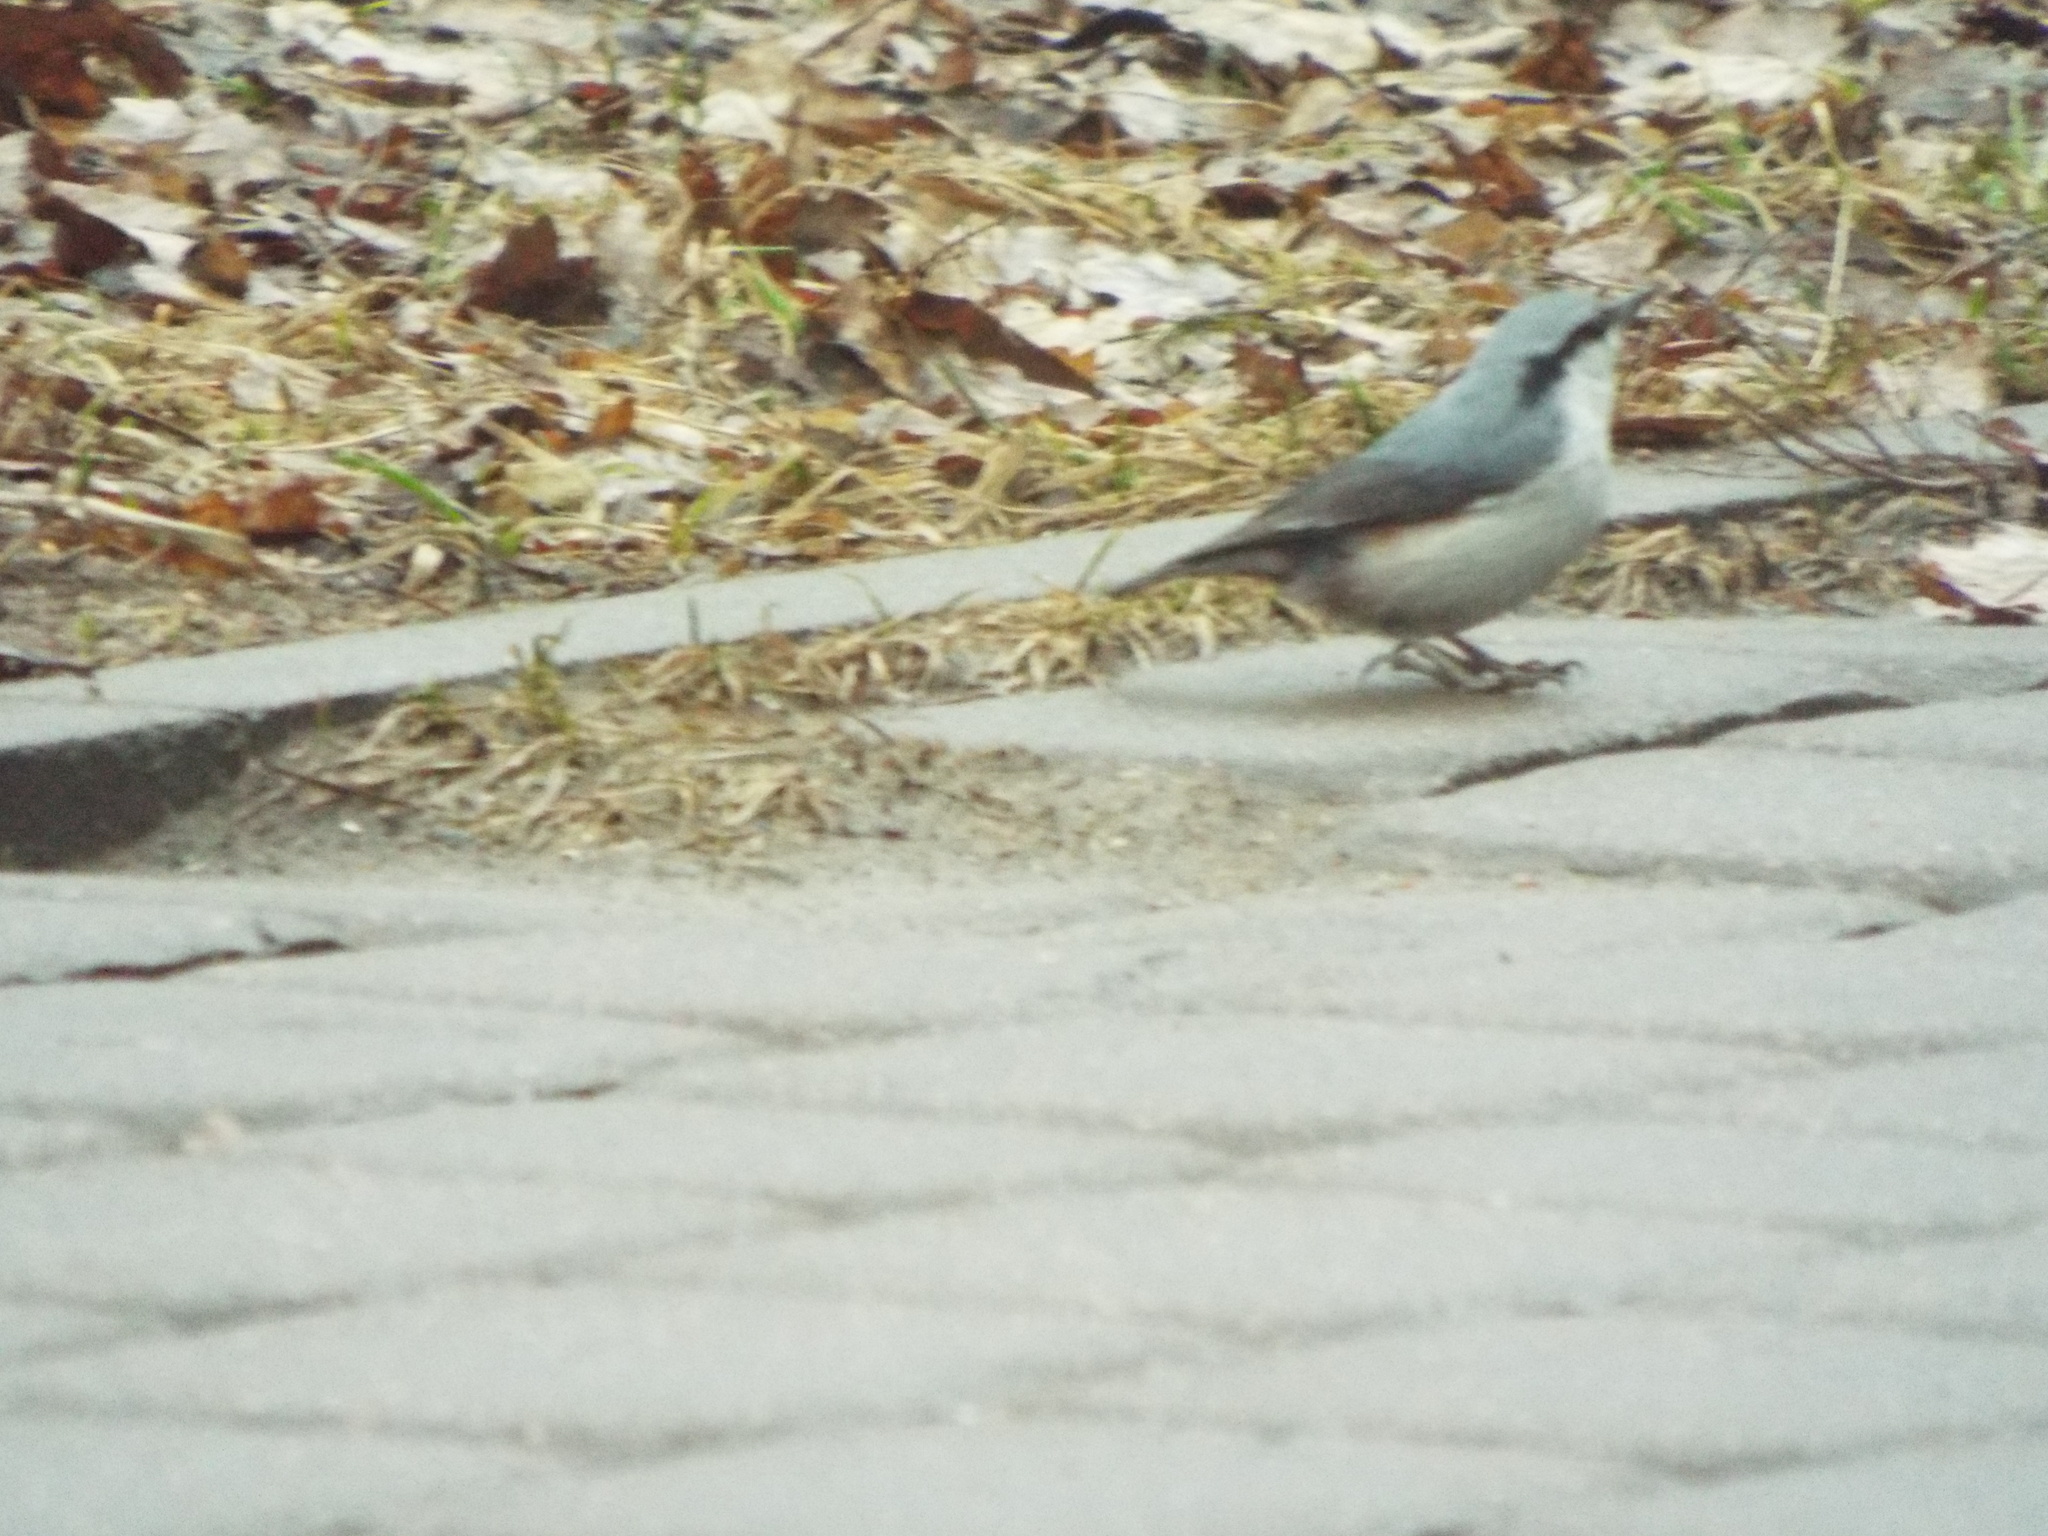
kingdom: Animalia
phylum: Chordata
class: Aves
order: Passeriformes
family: Sittidae
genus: Sitta
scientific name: Sitta europaea
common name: Eurasian nuthatch
